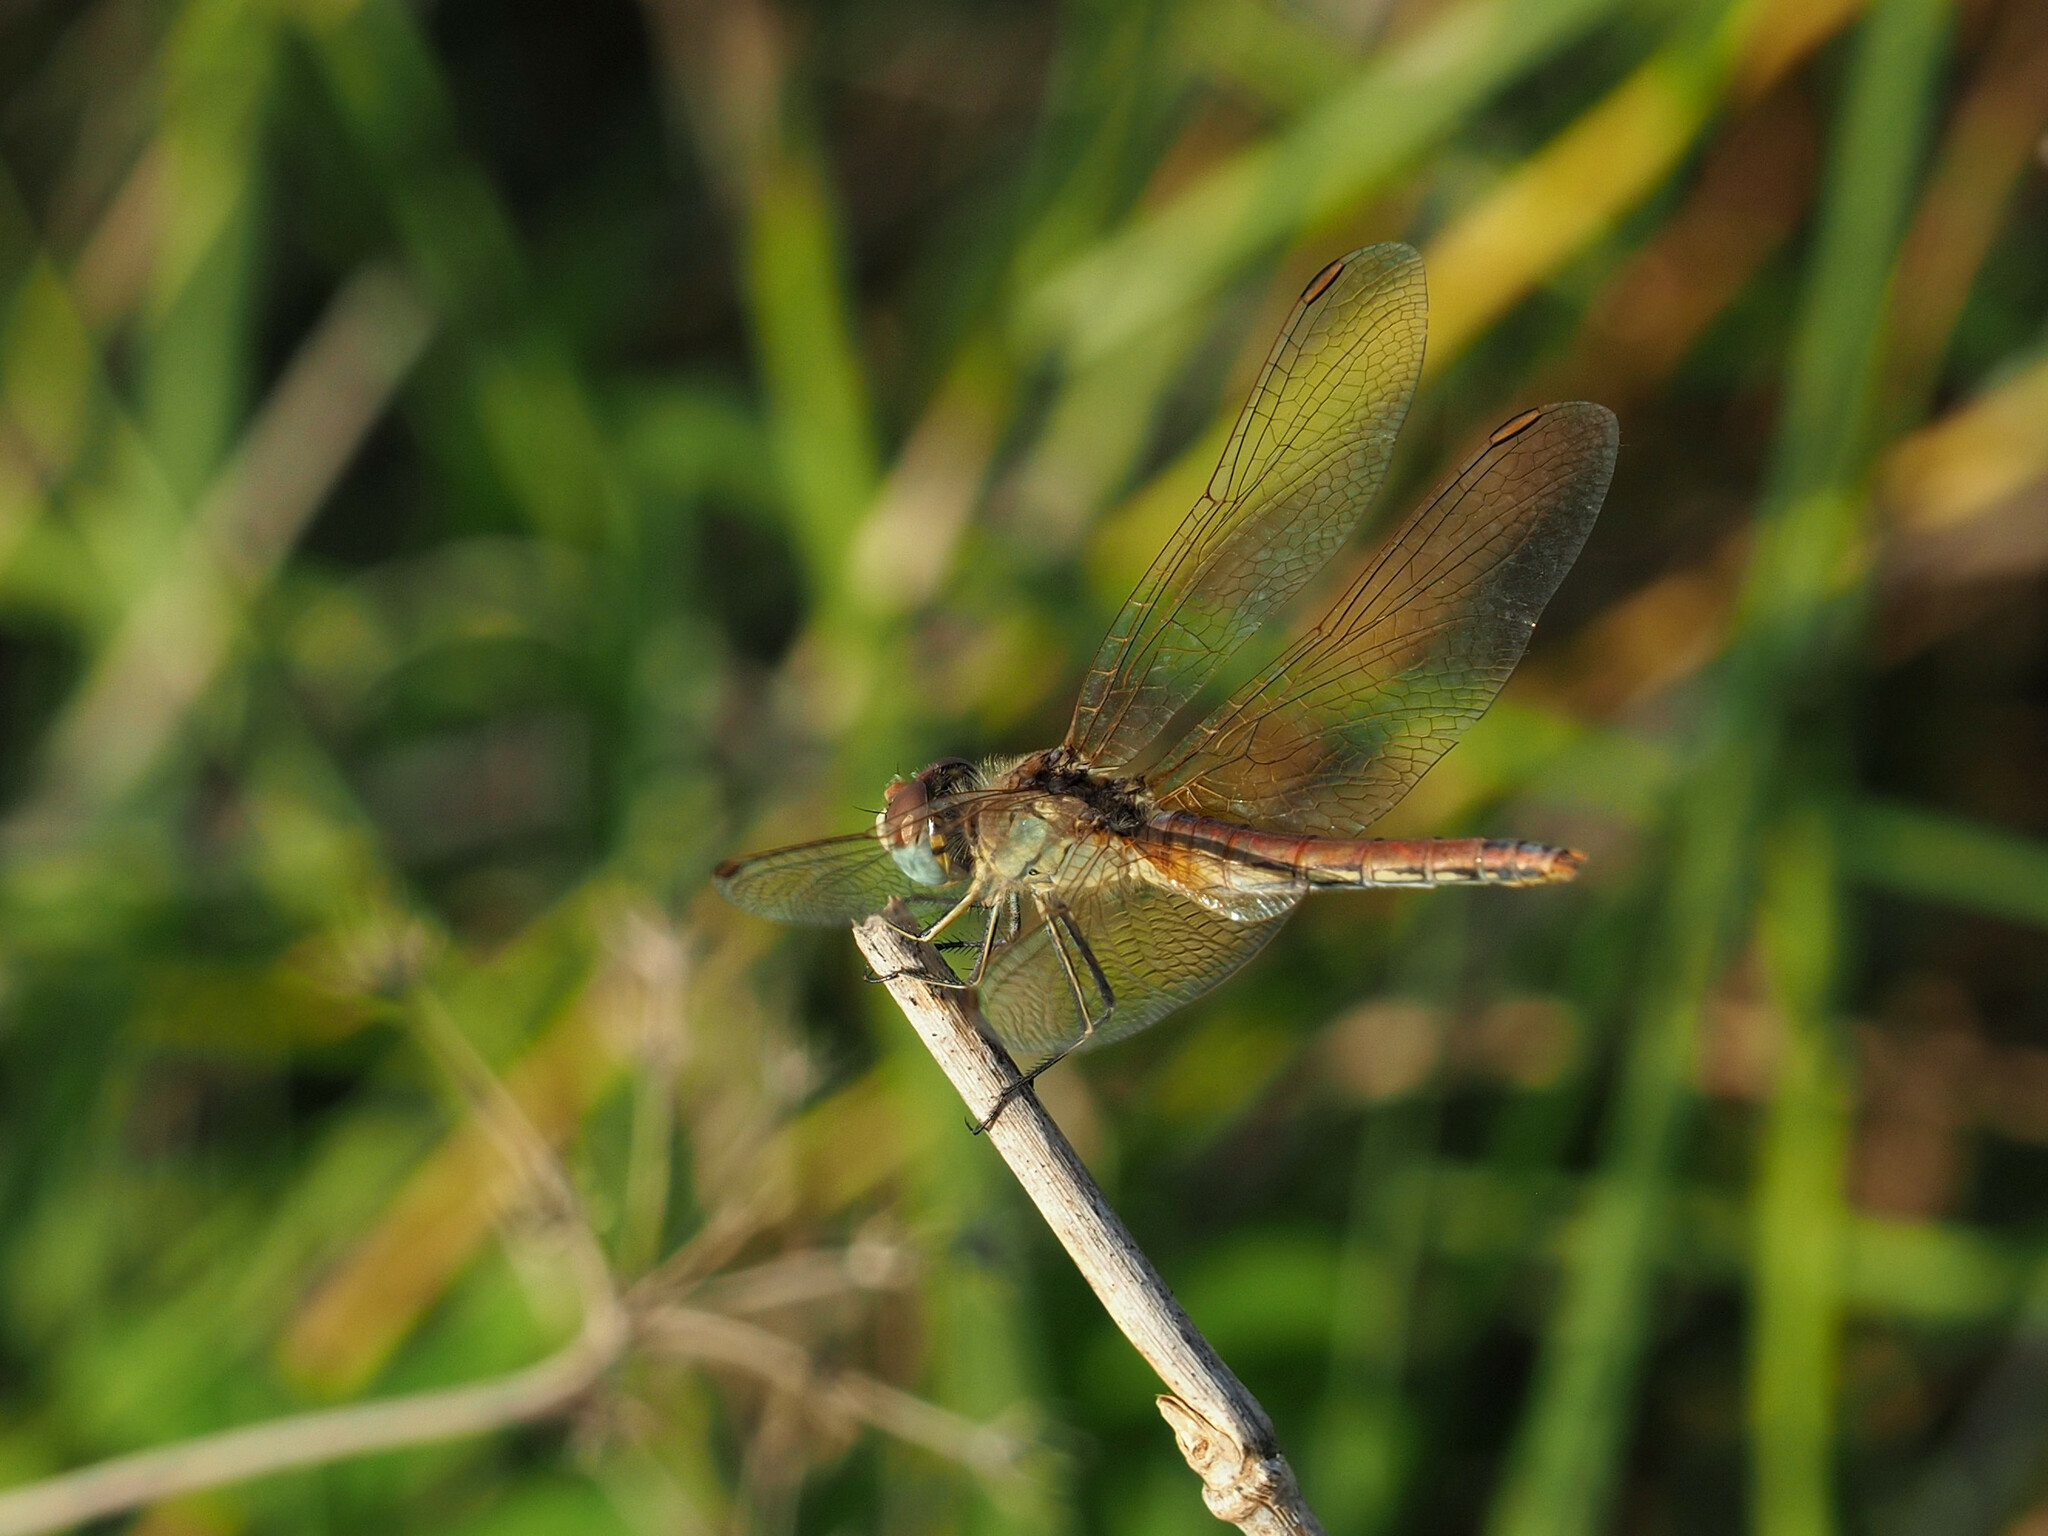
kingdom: Animalia
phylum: Arthropoda
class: Insecta
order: Odonata
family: Libellulidae
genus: Sympetrum
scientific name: Sympetrum fonscolombii
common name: Red-veined darter
